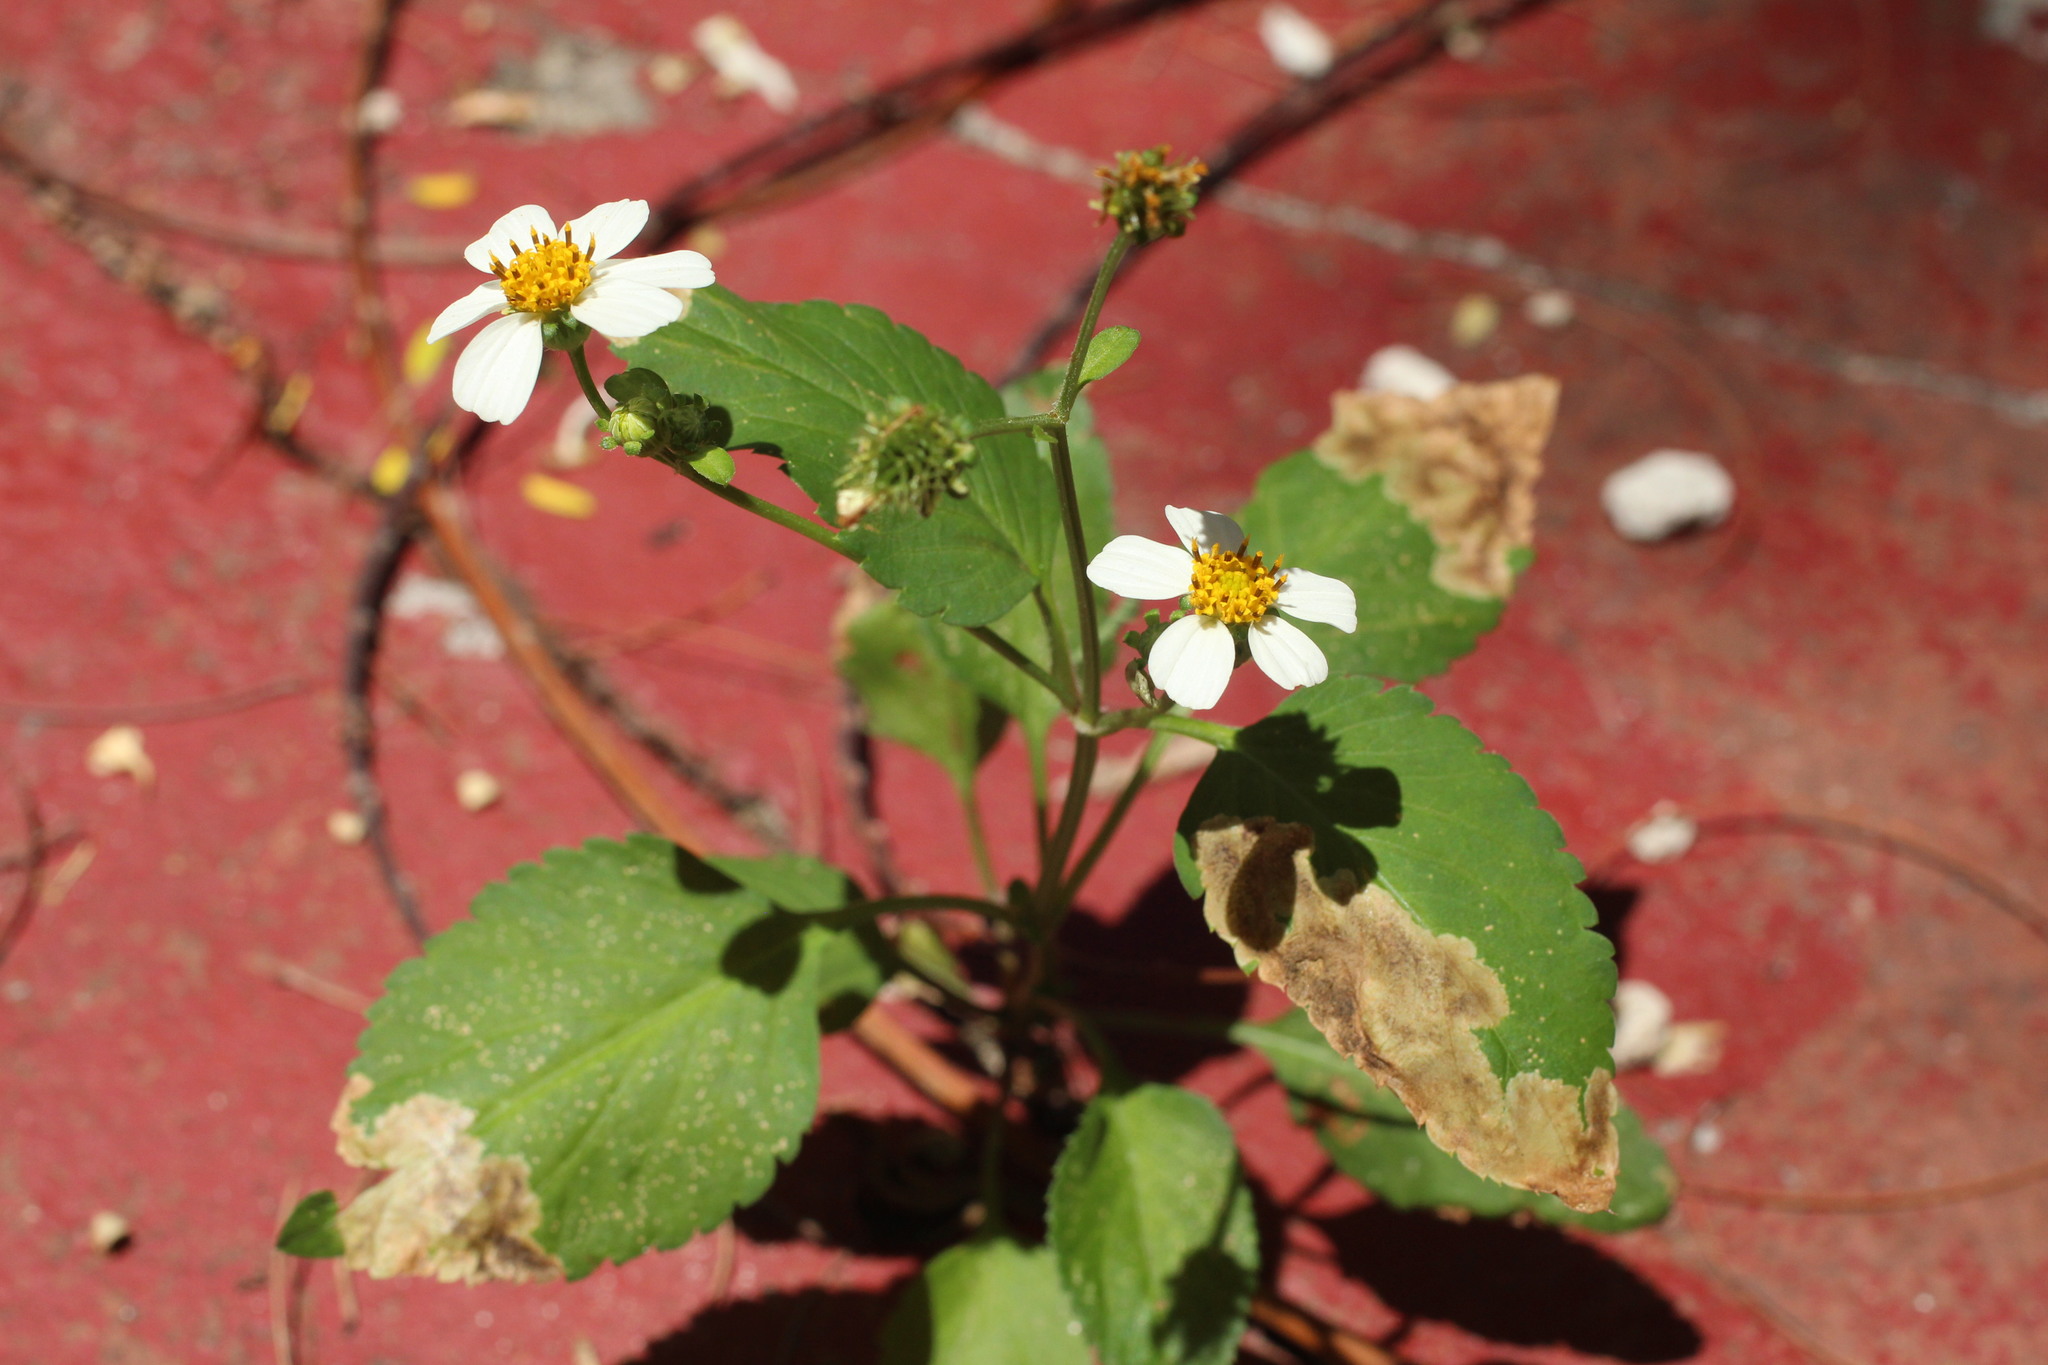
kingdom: Plantae
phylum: Tracheophyta
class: Magnoliopsida
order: Asterales
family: Asteraceae
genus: Bidens
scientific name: Bidens alba
